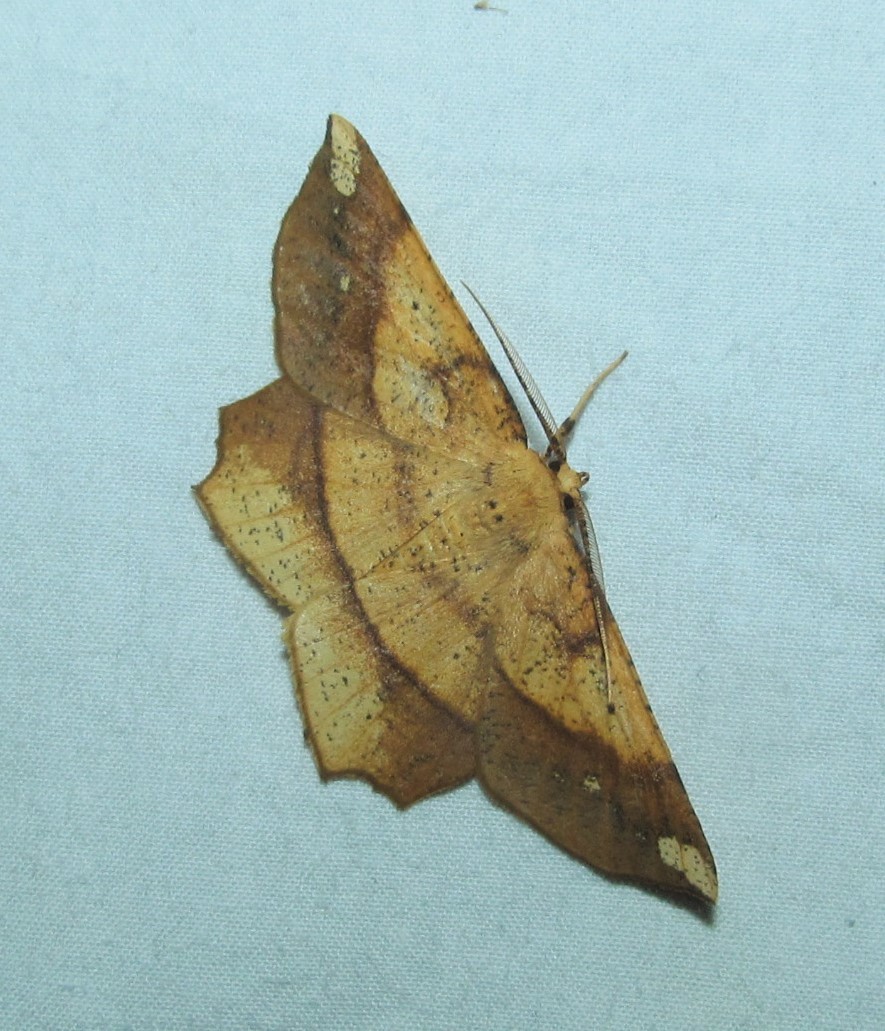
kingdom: Animalia
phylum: Arthropoda
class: Insecta
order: Lepidoptera
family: Geometridae
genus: Euchlaena
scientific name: Euchlaena amoenaria
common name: Deep yellow euchlaena
